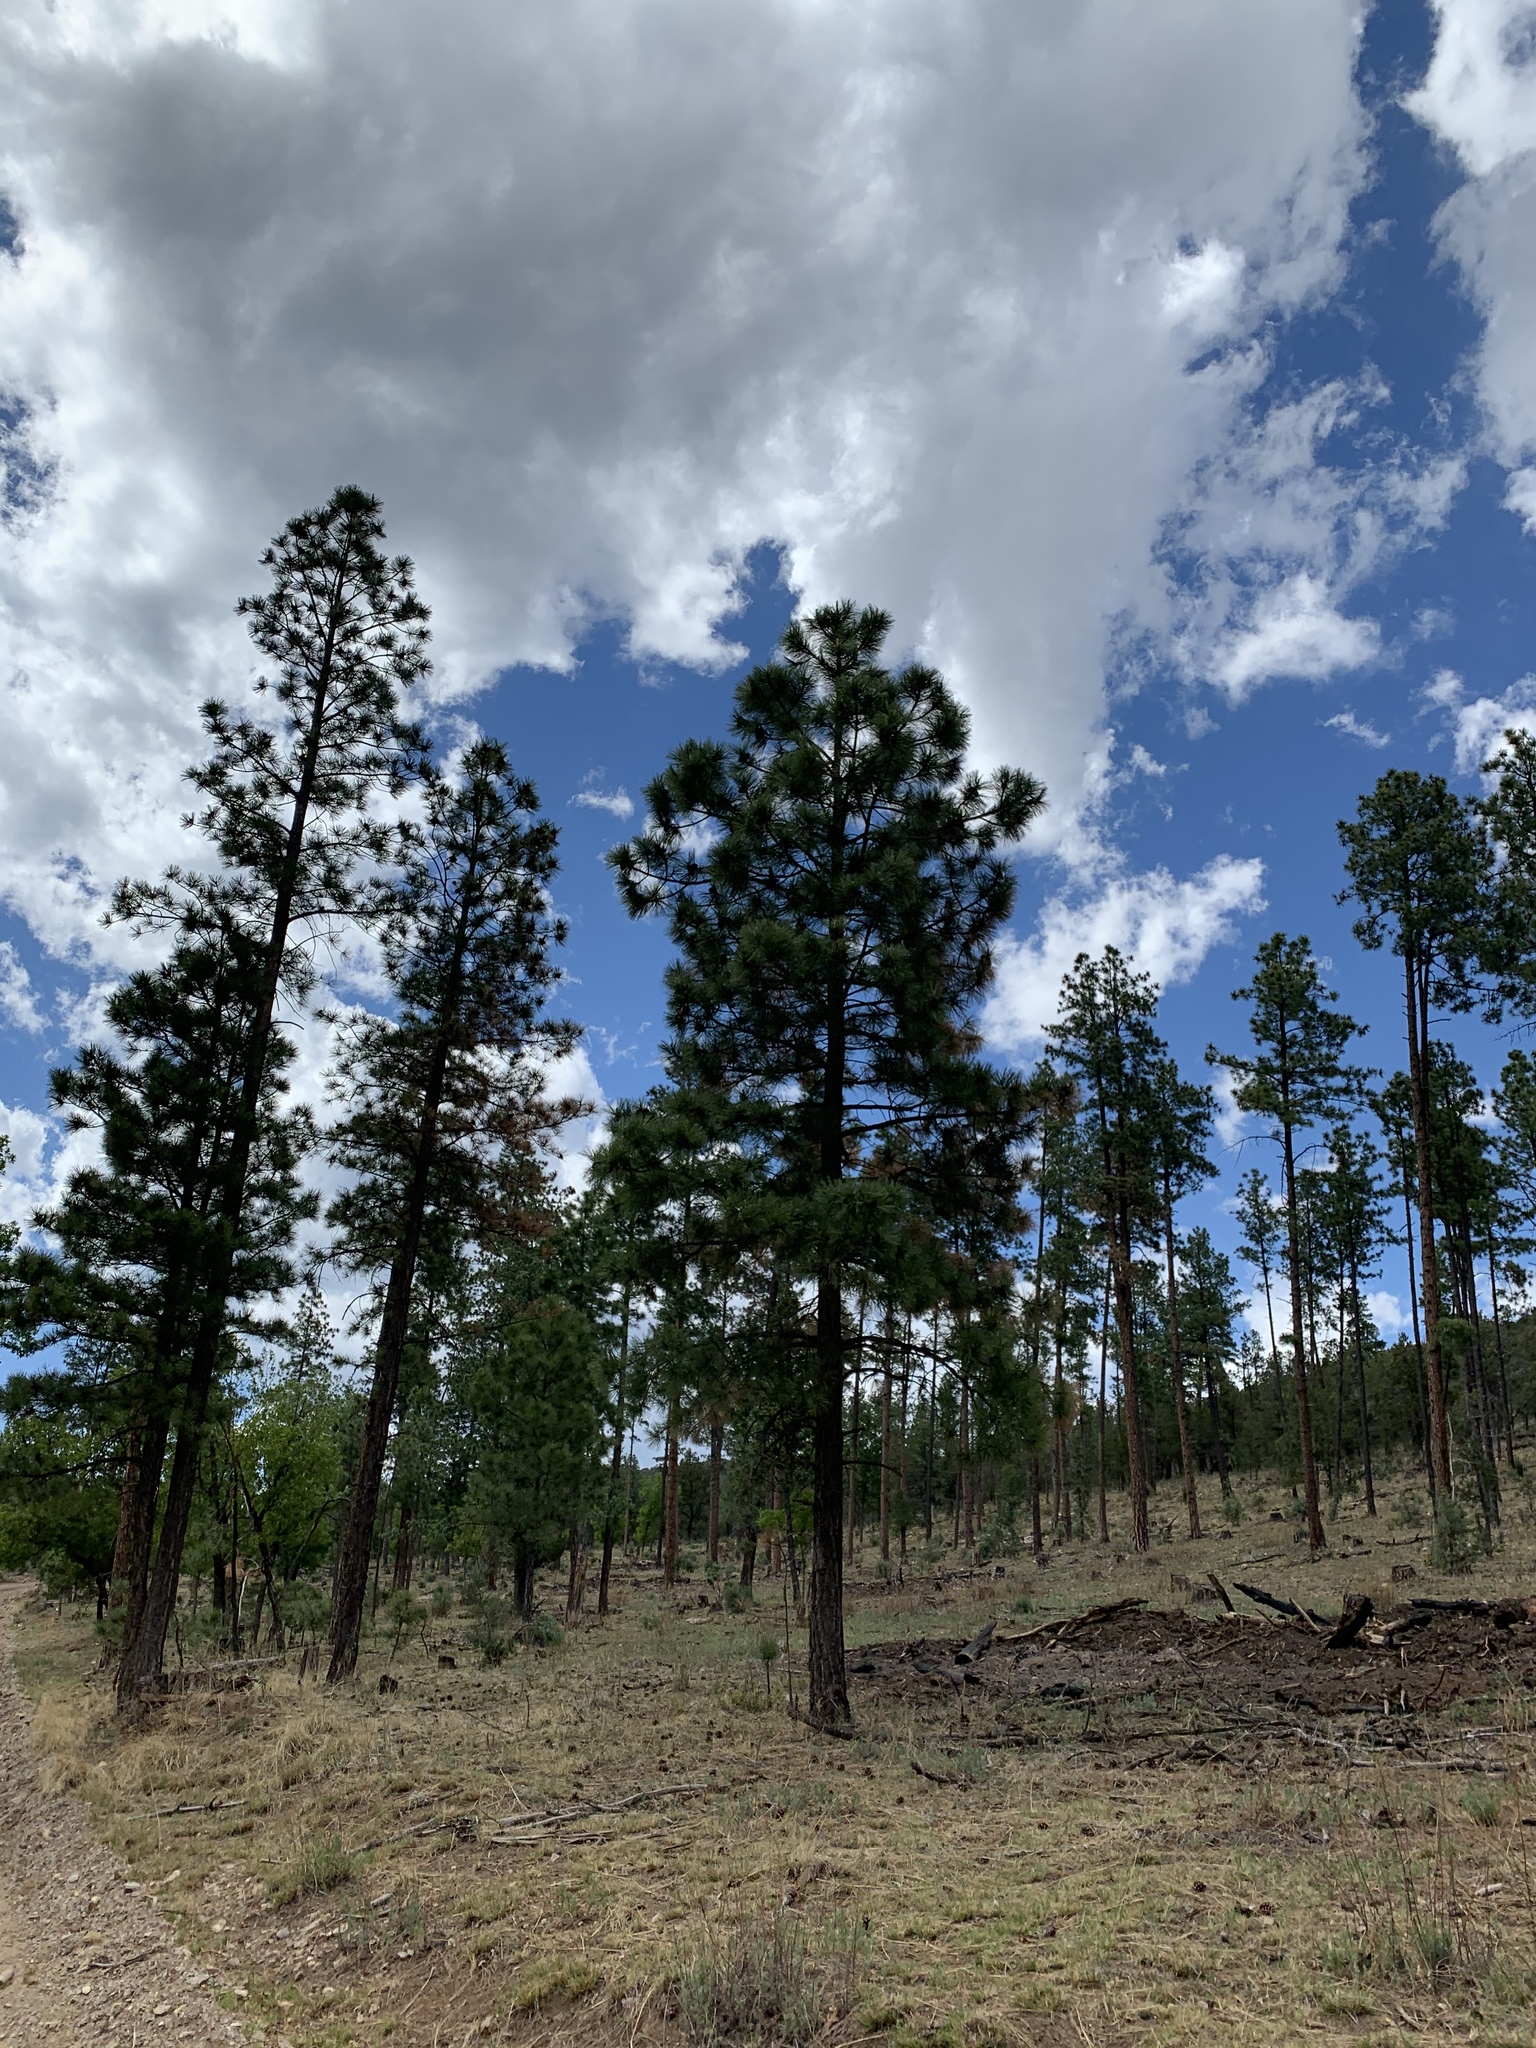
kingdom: Plantae
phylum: Tracheophyta
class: Pinopsida
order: Pinales
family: Pinaceae
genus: Pinus
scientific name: Pinus ponderosa
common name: Western yellow-pine
